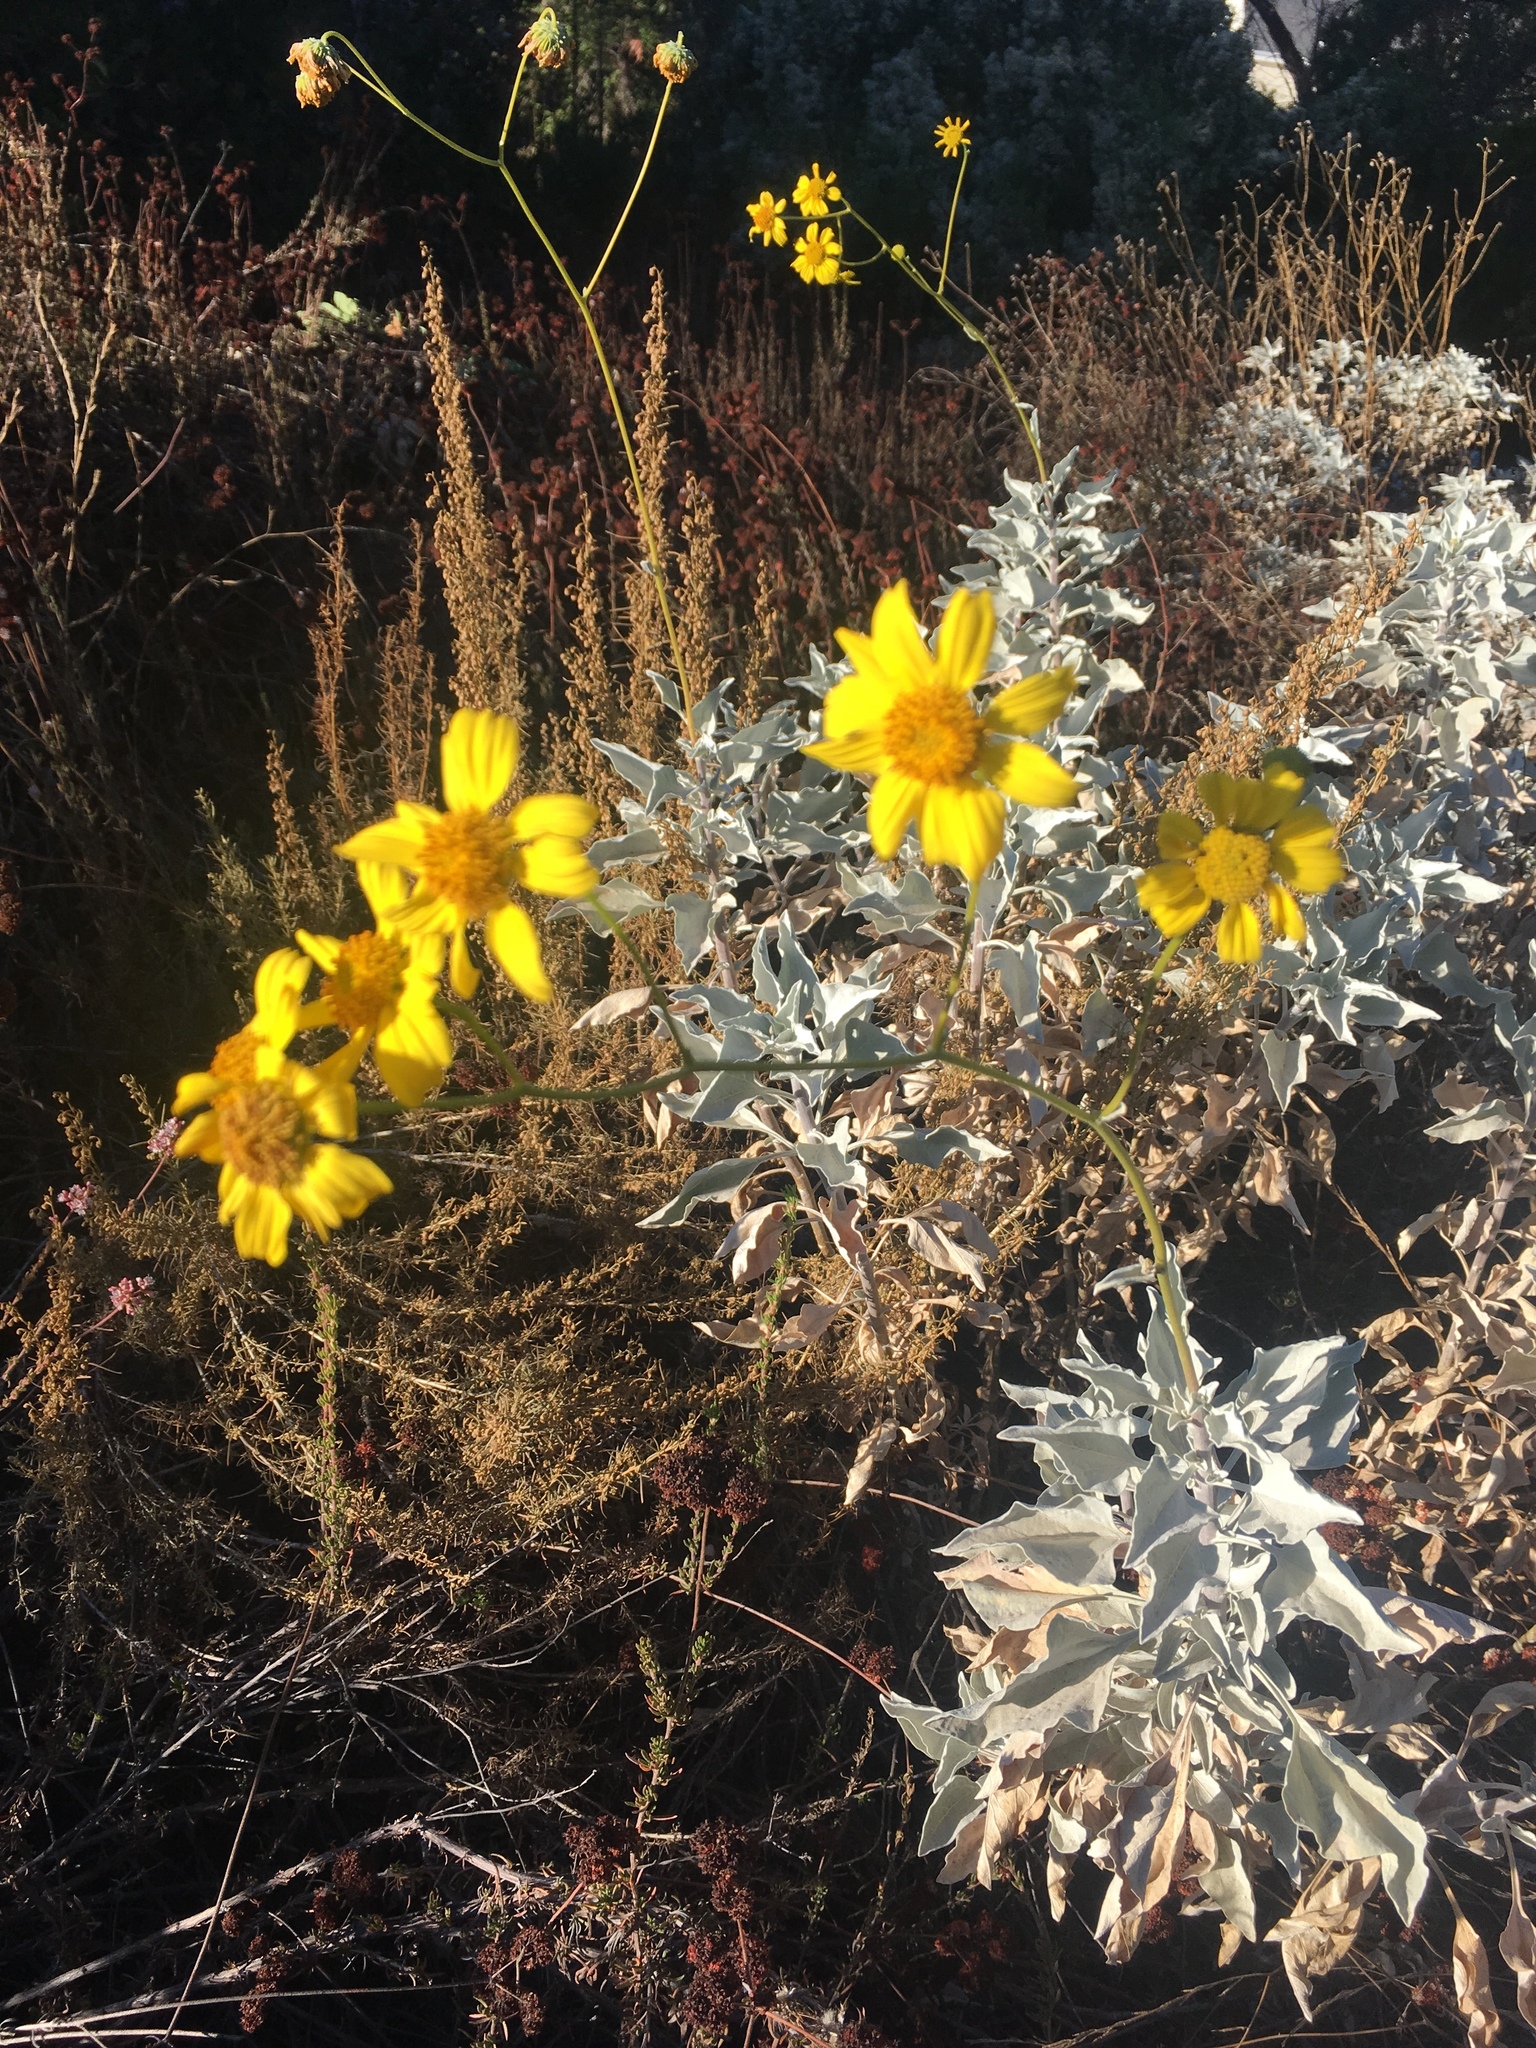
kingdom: Plantae
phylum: Tracheophyta
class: Magnoliopsida
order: Asterales
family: Asteraceae
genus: Encelia
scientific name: Encelia farinosa
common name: Brittlebush
